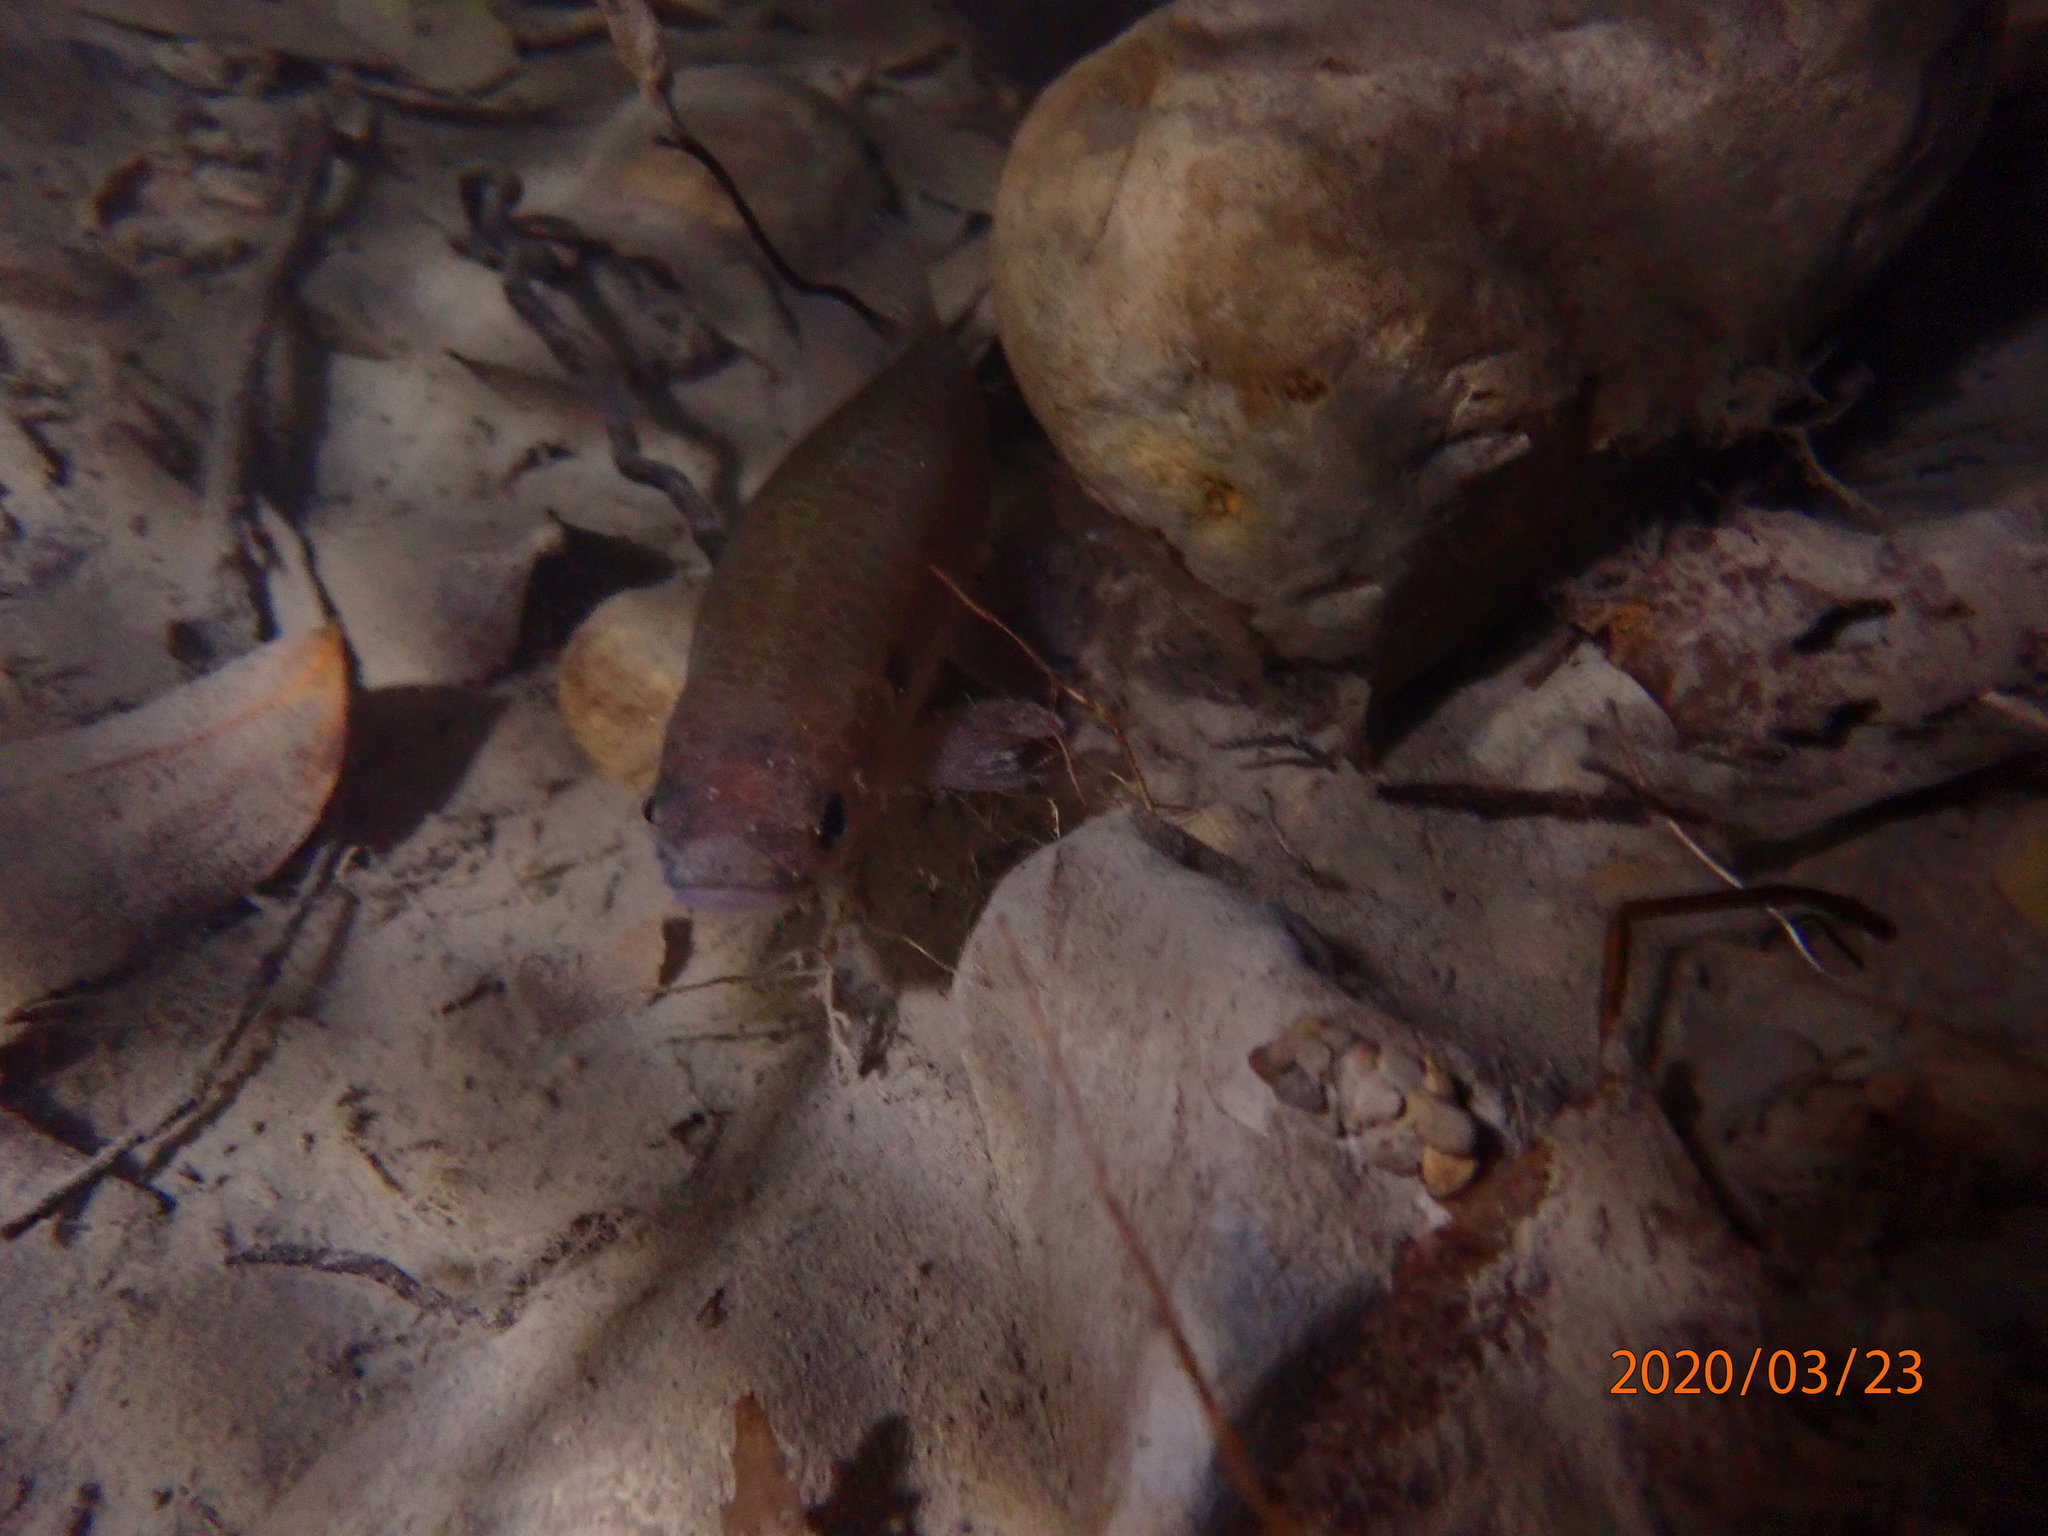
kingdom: Animalia
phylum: Chordata
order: Osmeriformes
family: Galaxiidae
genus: Galaxias
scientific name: Galaxias fasciatus
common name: Banded kokopu
